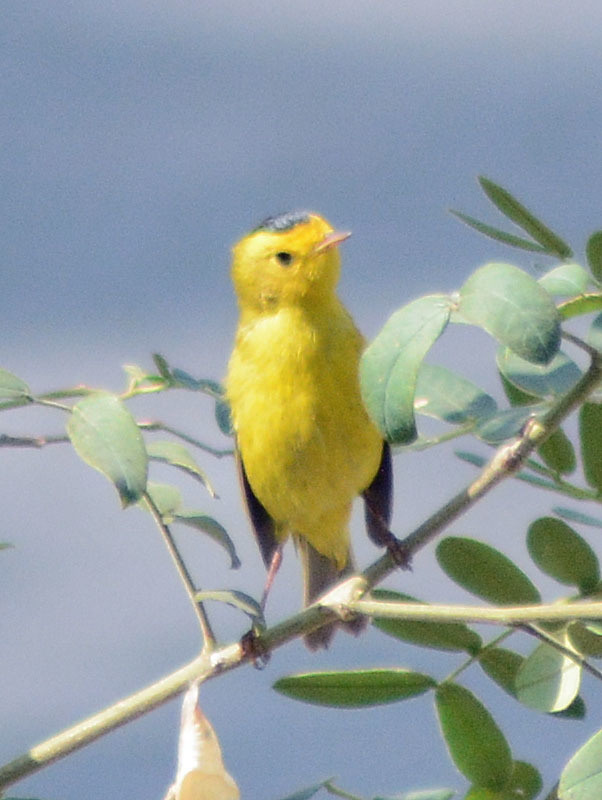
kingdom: Animalia
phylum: Chordata
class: Aves
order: Passeriformes
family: Parulidae
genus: Cardellina
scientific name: Cardellina pusilla
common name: Wilson's warbler
